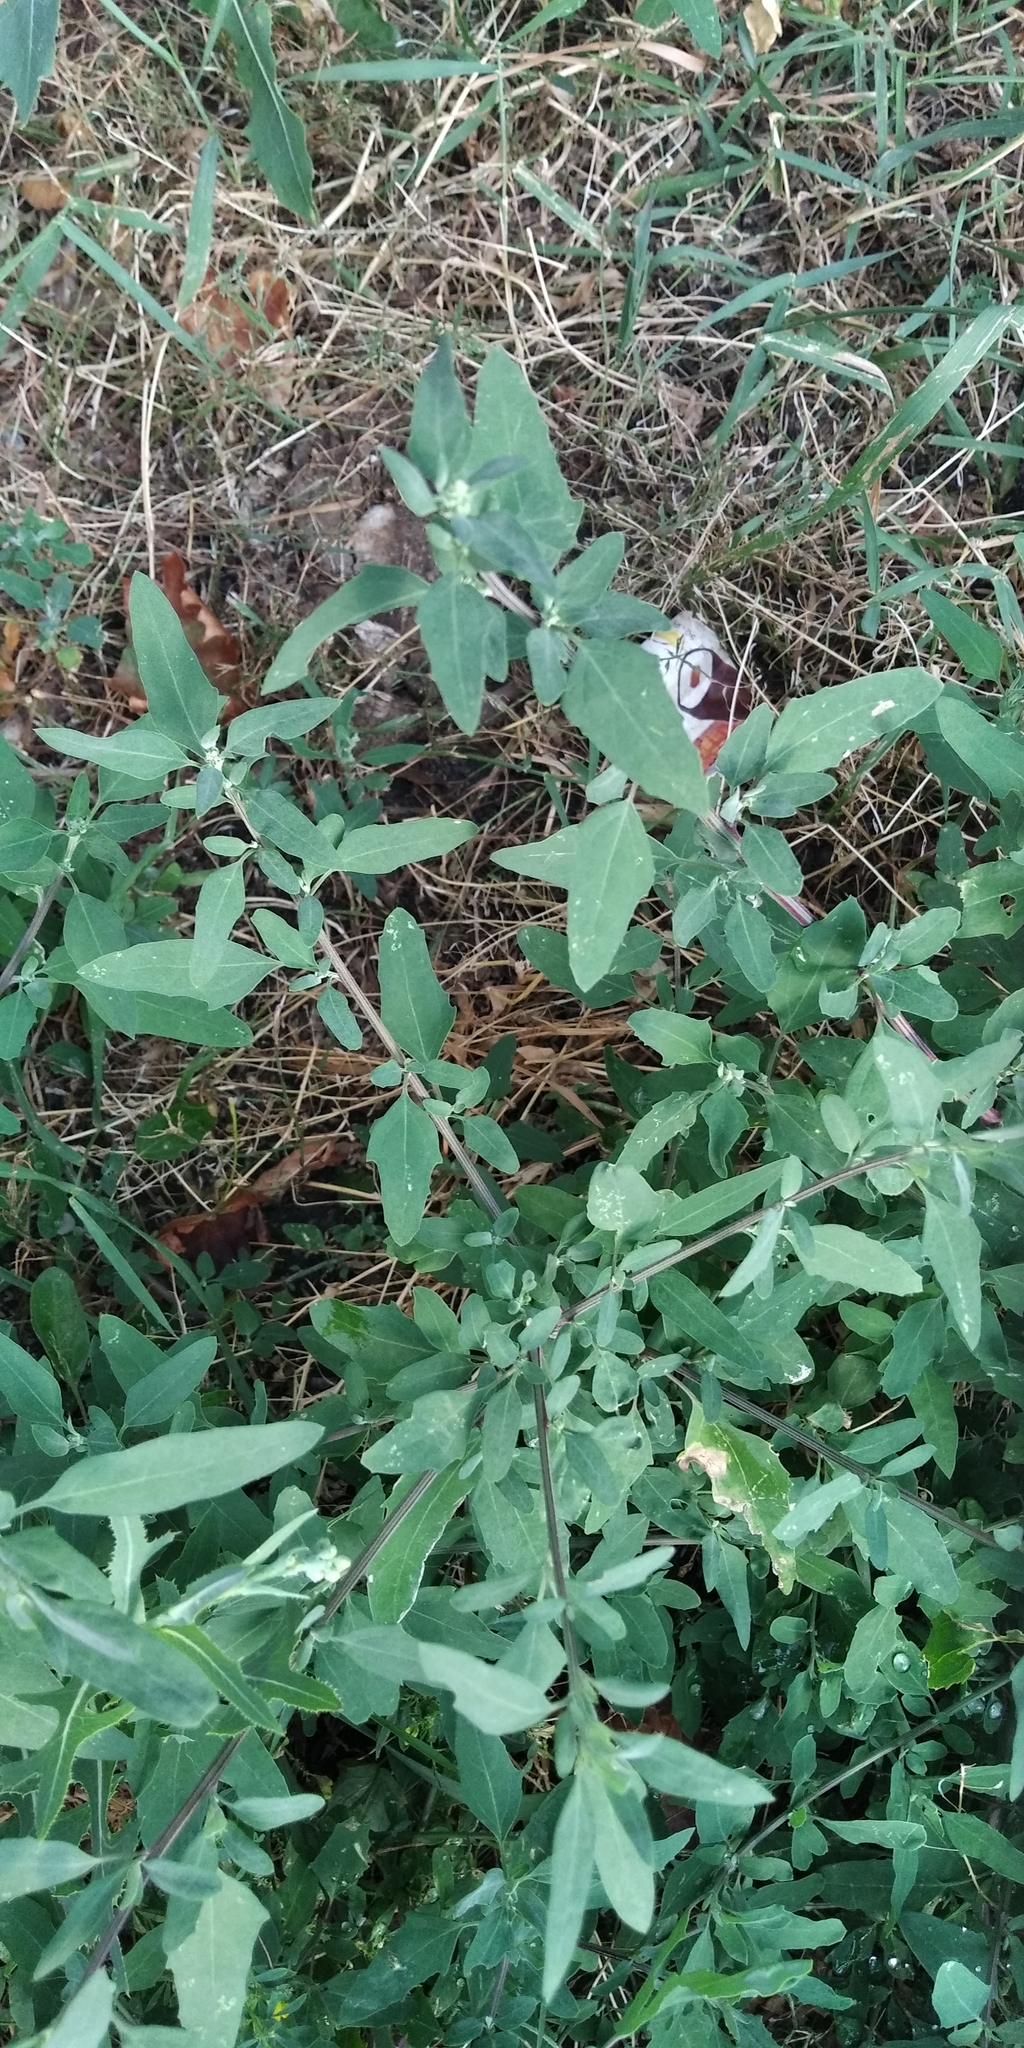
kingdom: Plantae
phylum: Tracheophyta
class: Magnoliopsida
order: Caryophyllales
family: Amaranthaceae
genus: Chenopodium
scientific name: Chenopodium betaceum
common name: Striped goosefoot
